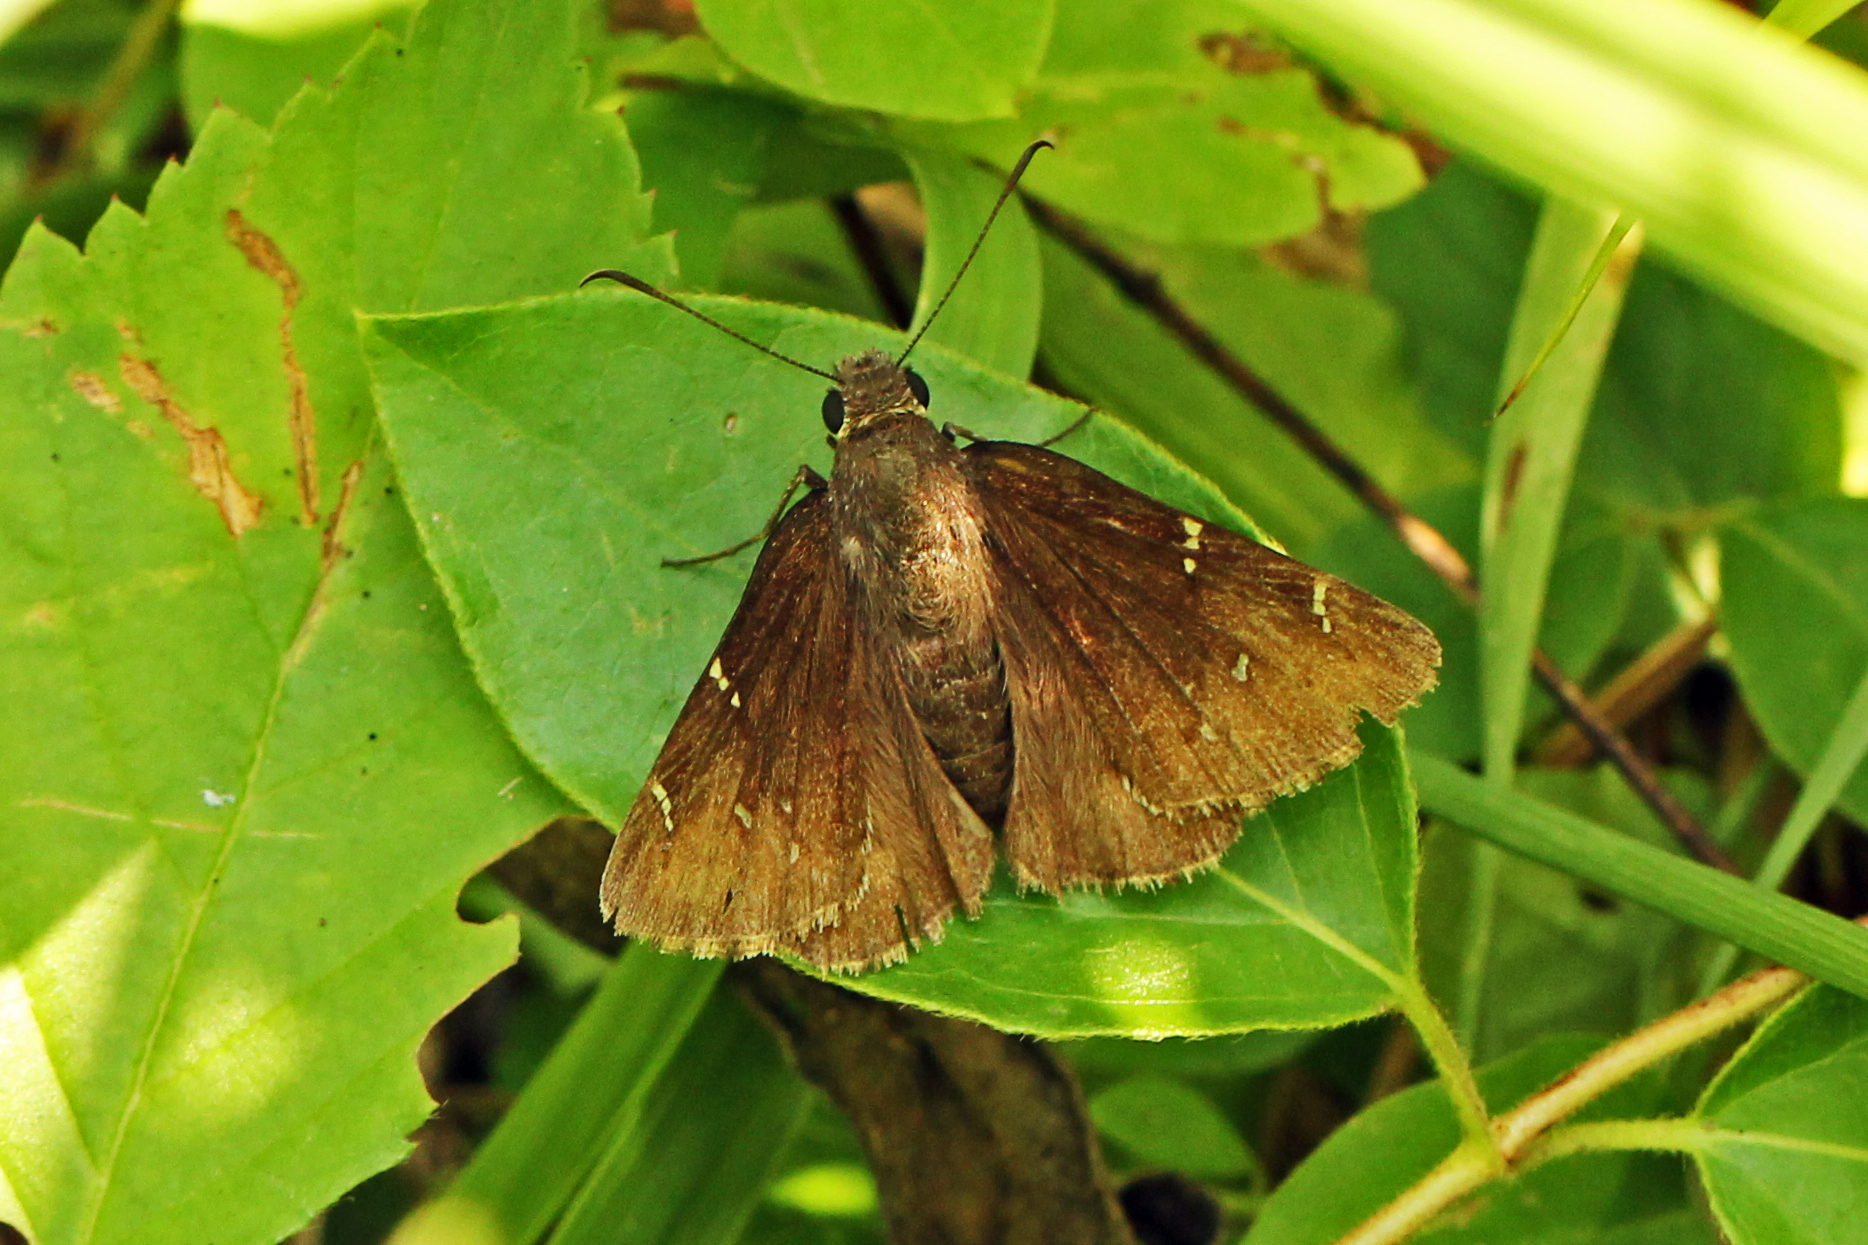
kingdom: Animalia
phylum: Arthropoda
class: Insecta
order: Lepidoptera
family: Hesperiidae
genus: Thorybes
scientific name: Thorybes pylades
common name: Northern cloudywing
